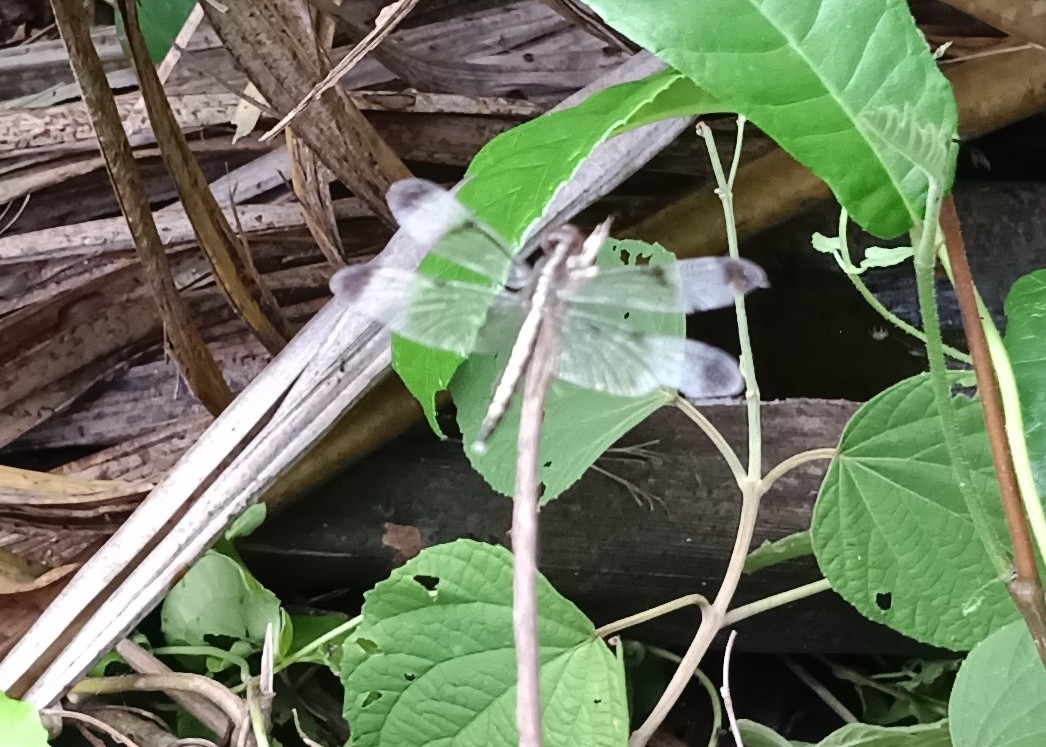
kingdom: Animalia
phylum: Arthropoda
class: Insecta
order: Odonata
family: Libellulidae
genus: Neurothemis
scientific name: Neurothemis tullia
